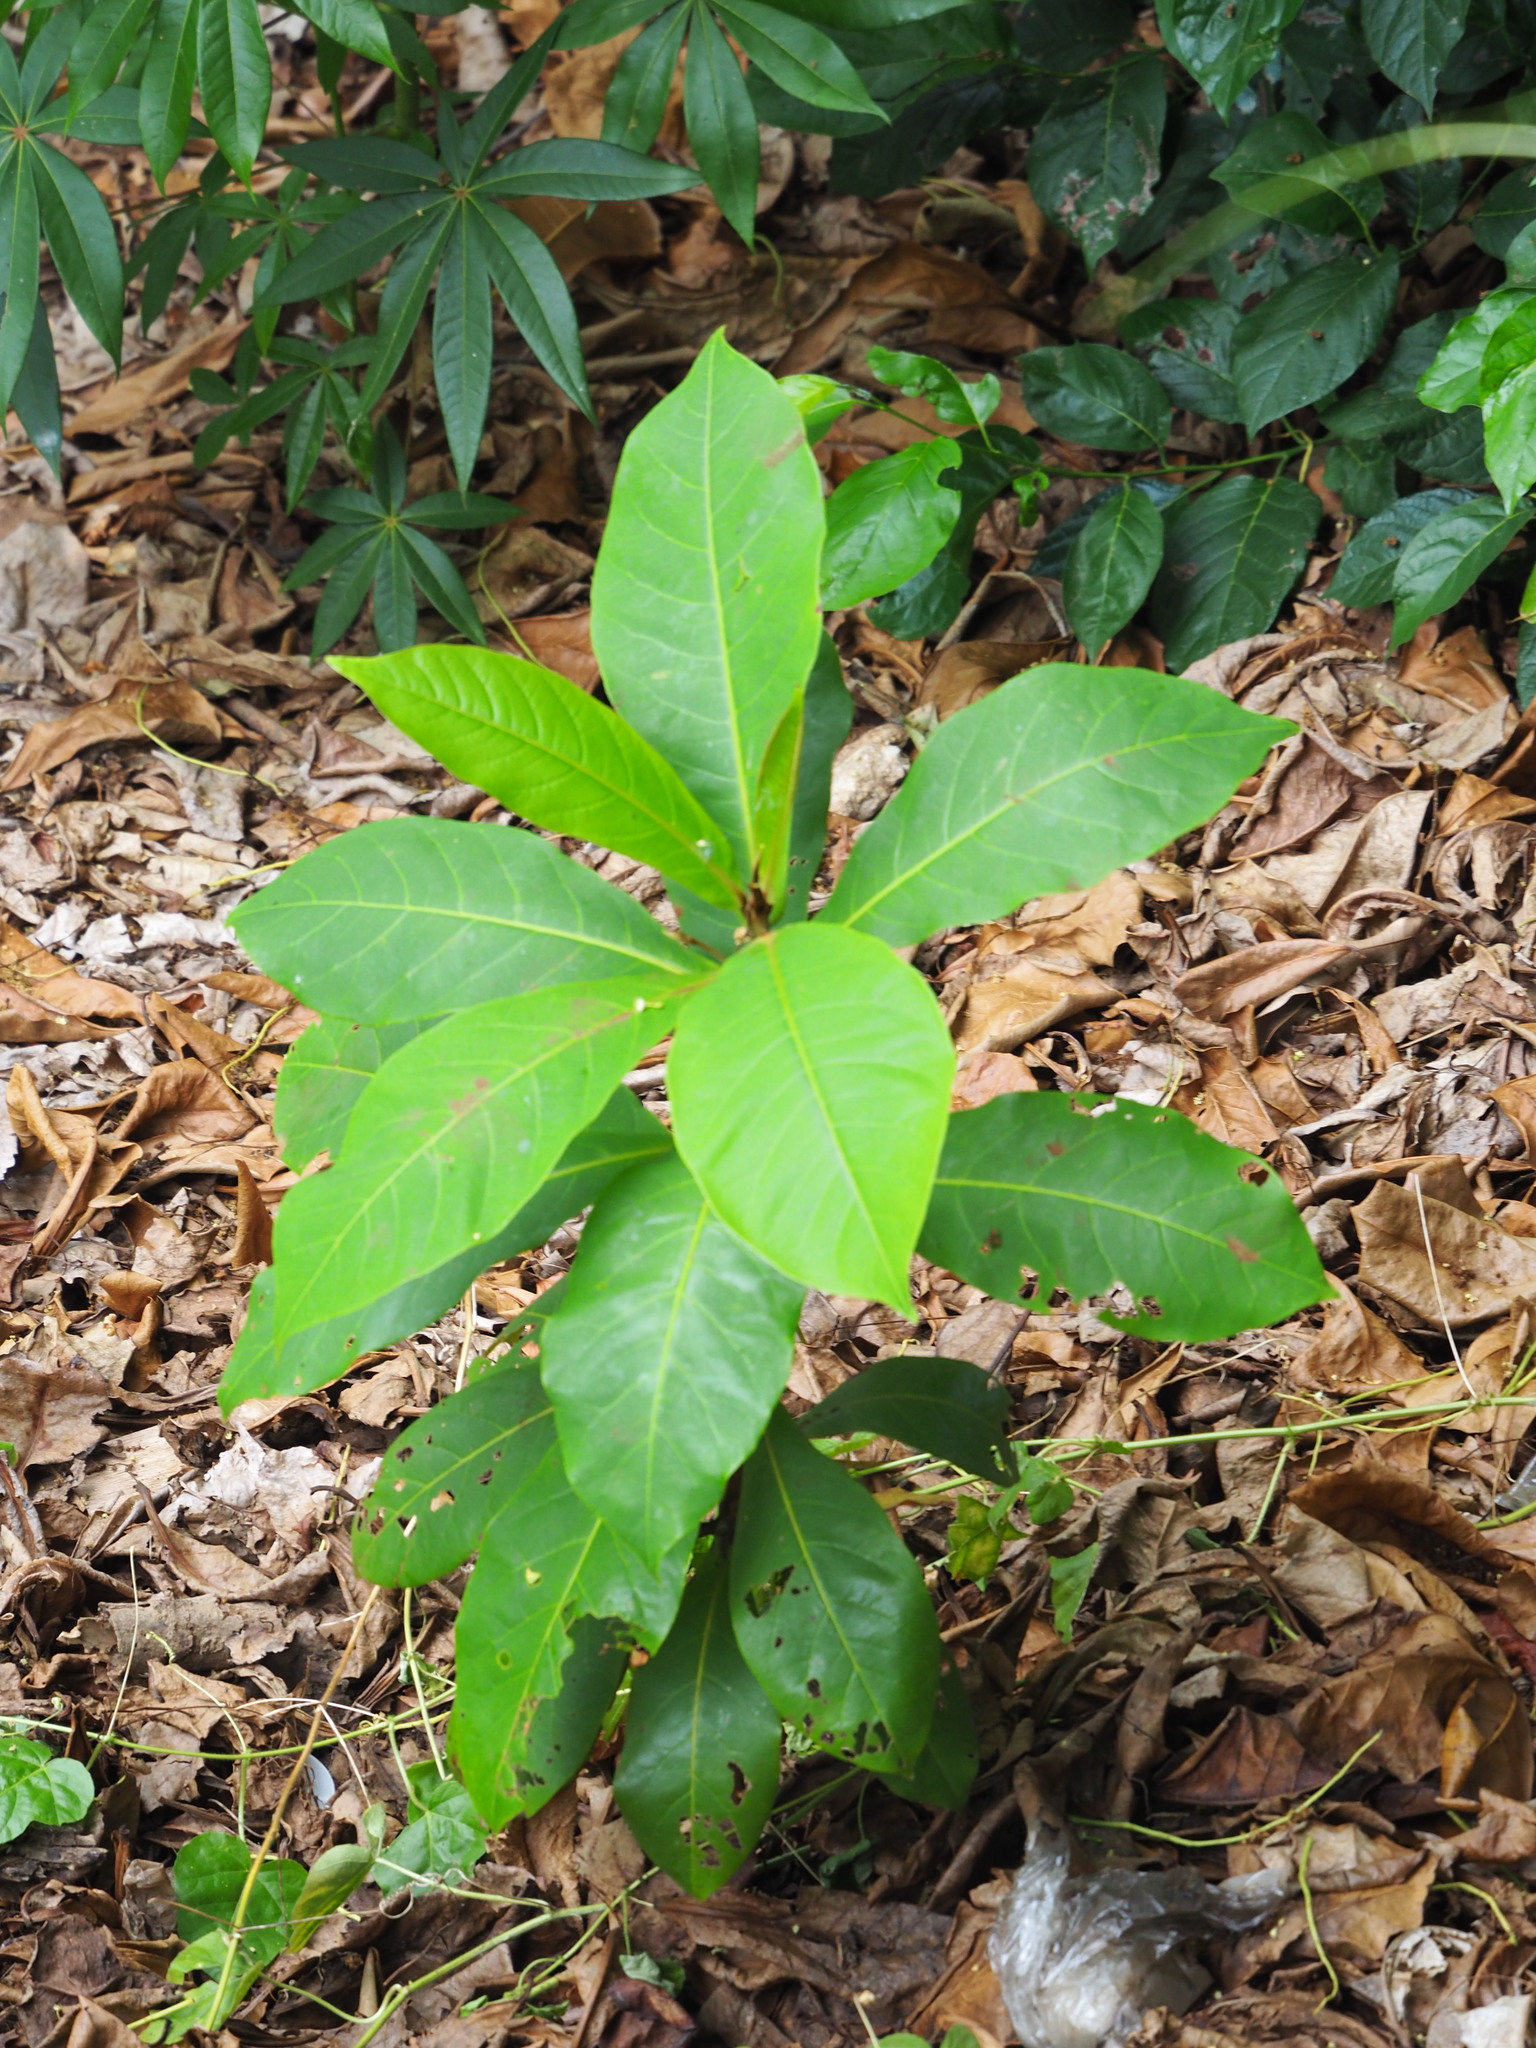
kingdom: Plantae
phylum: Tracheophyta
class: Magnoliopsida
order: Myrtales
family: Combretaceae
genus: Terminalia
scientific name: Terminalia catappa
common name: Tropical almond
